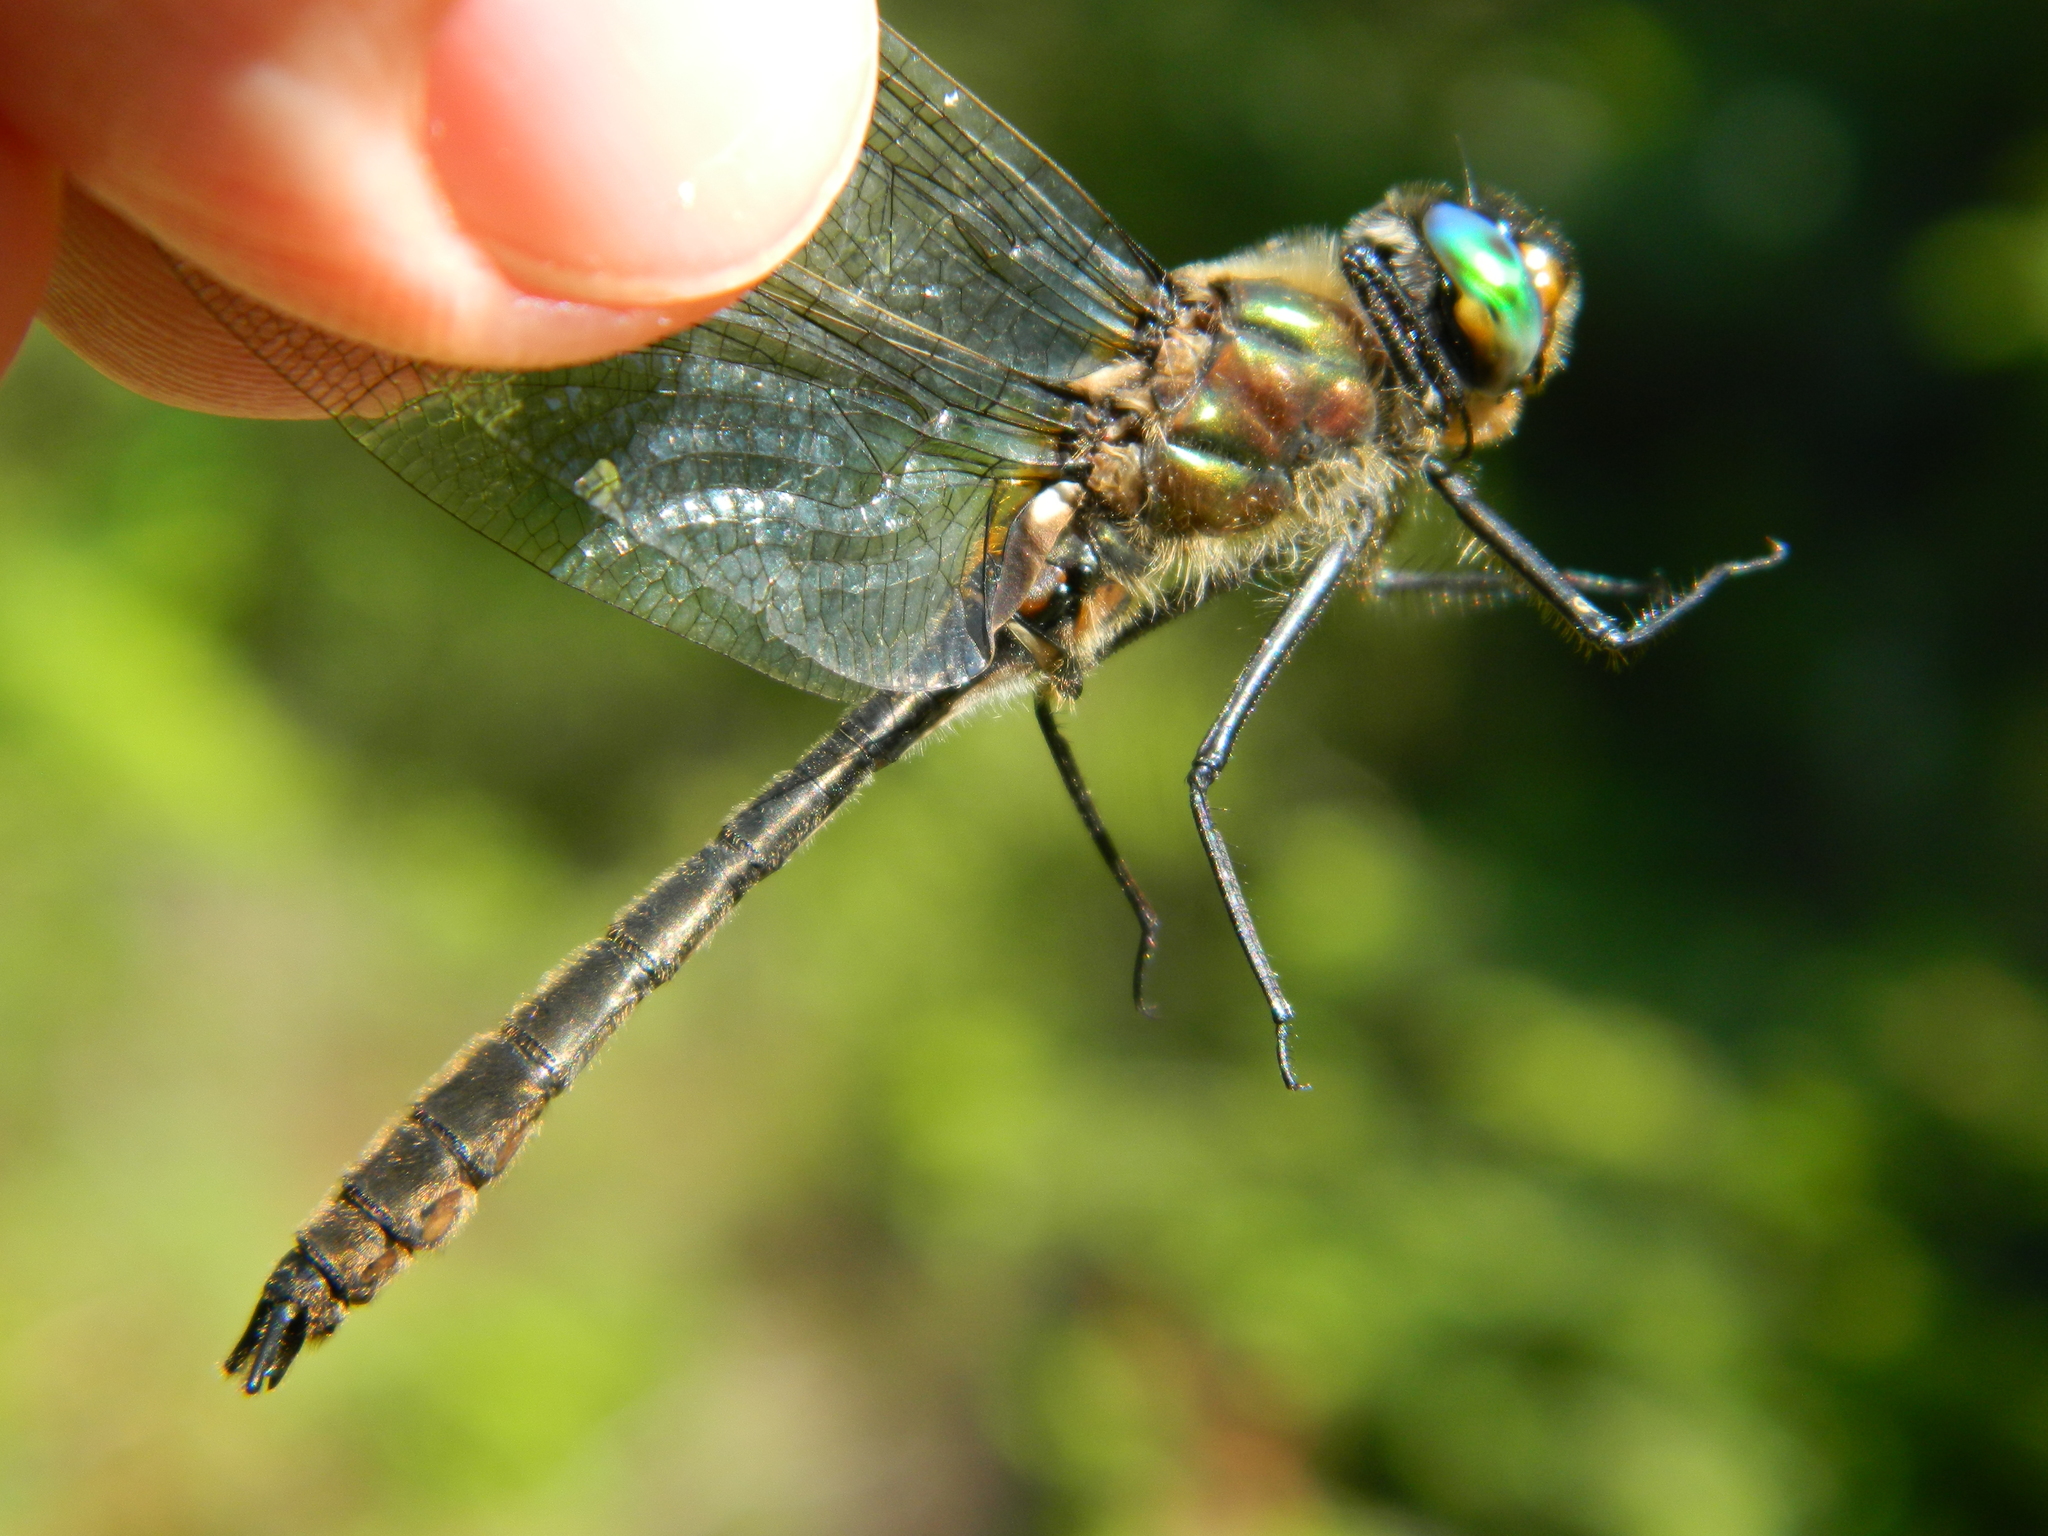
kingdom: Animalia
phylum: Arthropoda
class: Insecta
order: Odonata
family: Corduliidae
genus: Cordulia
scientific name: Cordulia shurtleffii
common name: American emerald
